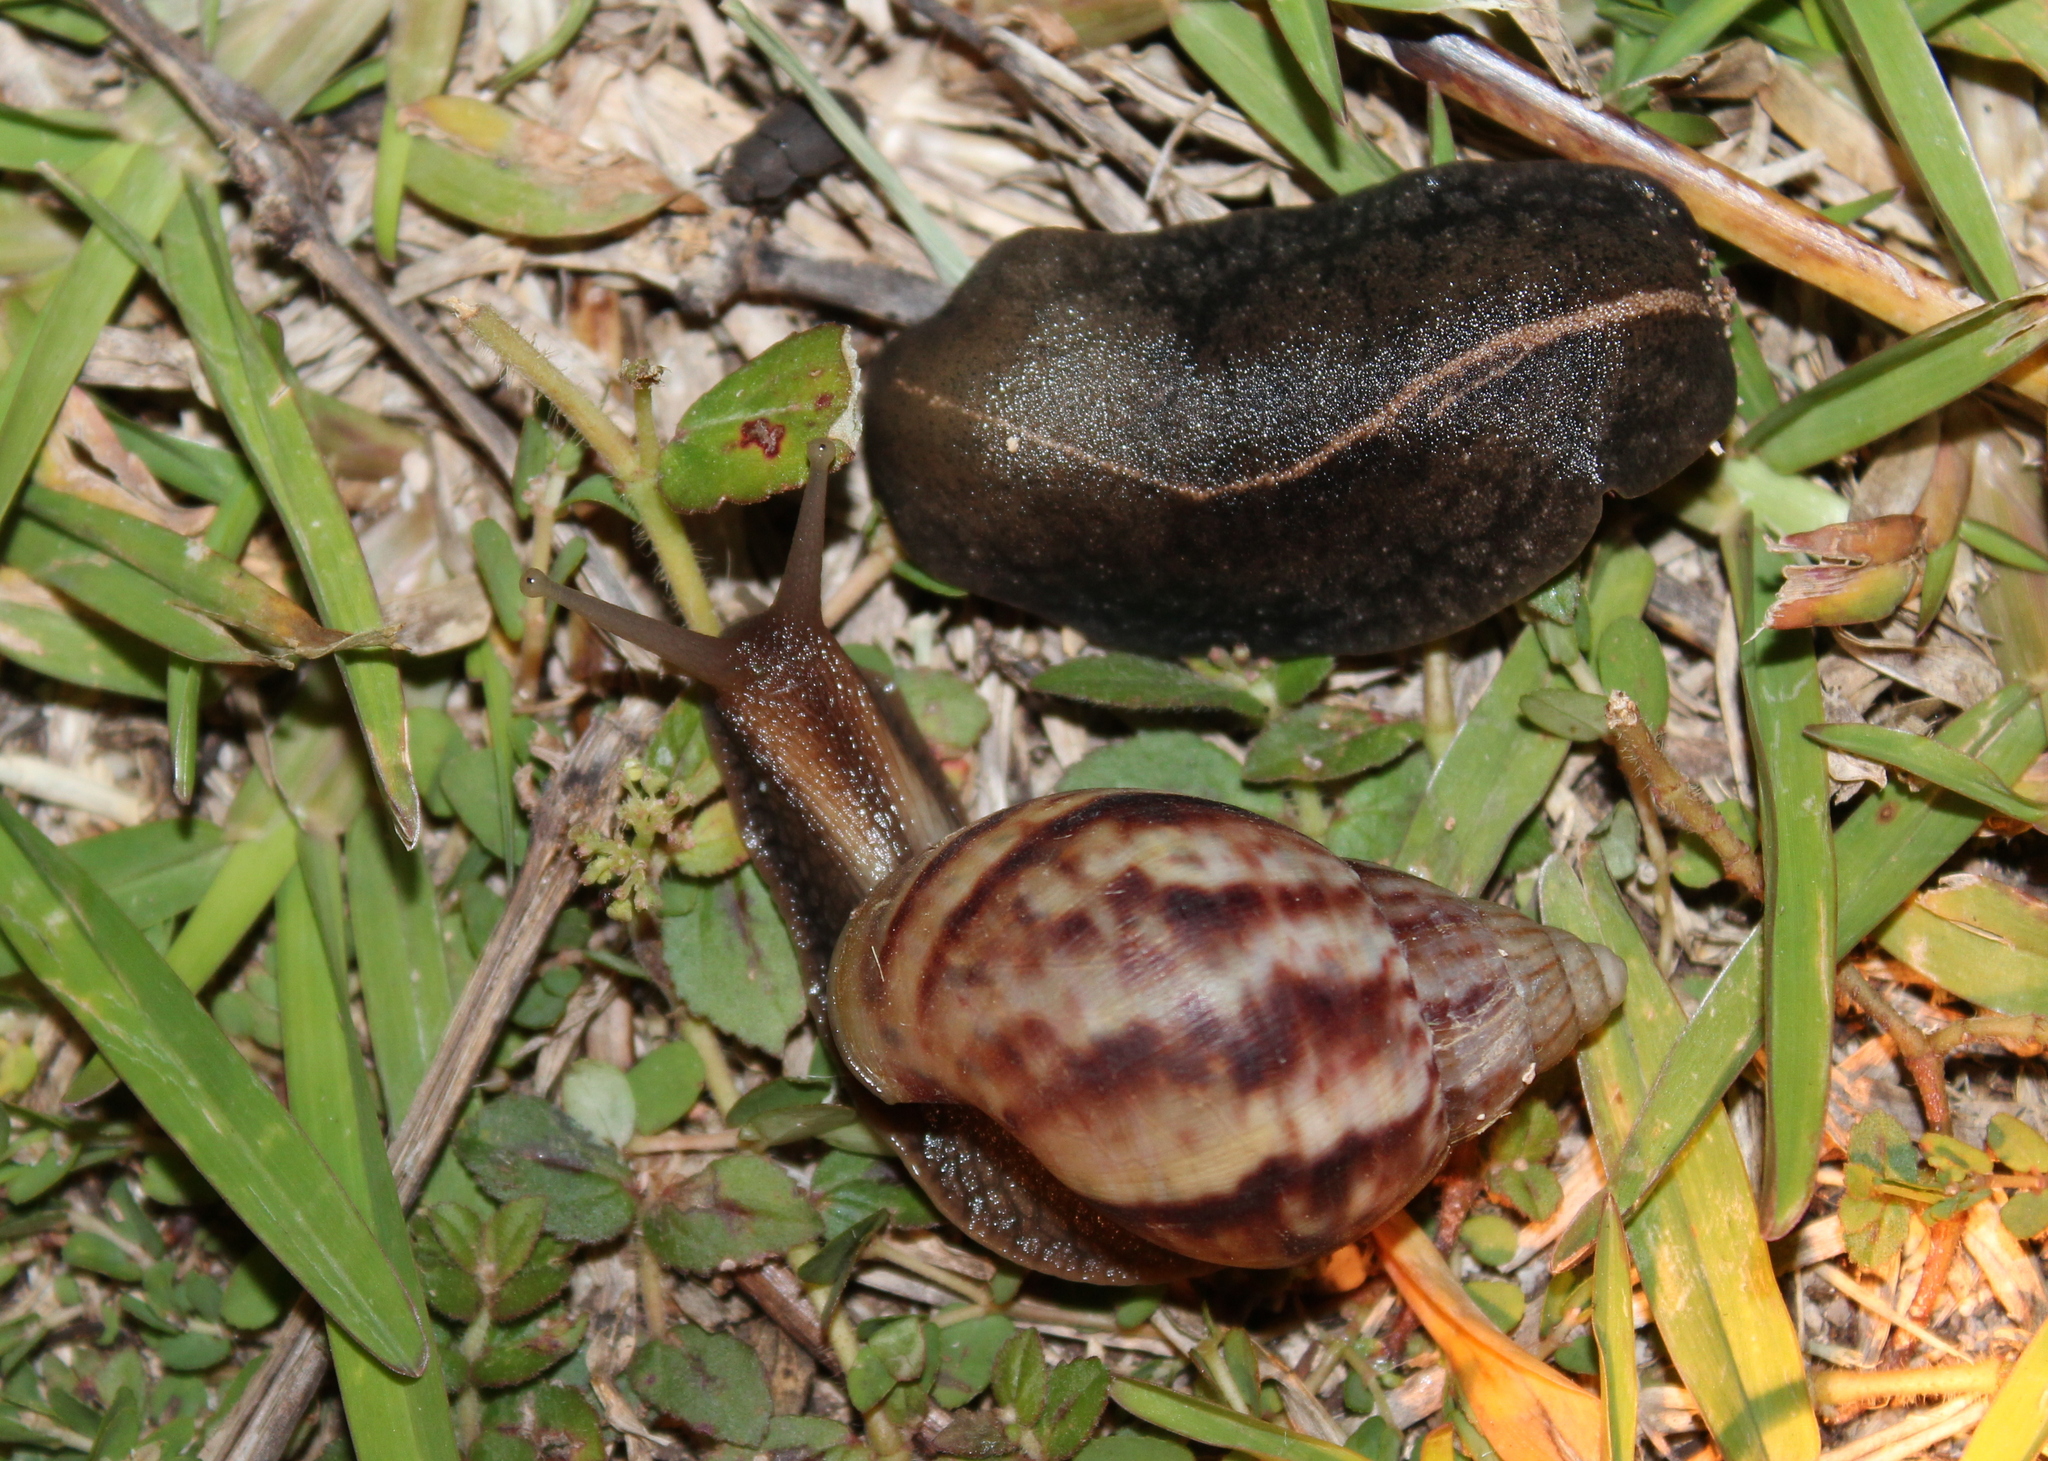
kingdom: Animalia
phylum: Mollusca
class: Gastropoda
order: Systellommatophora
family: Veronicellidae
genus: Laevicaulis
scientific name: Laevicaulis alte
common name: Tropical leatherleaf
